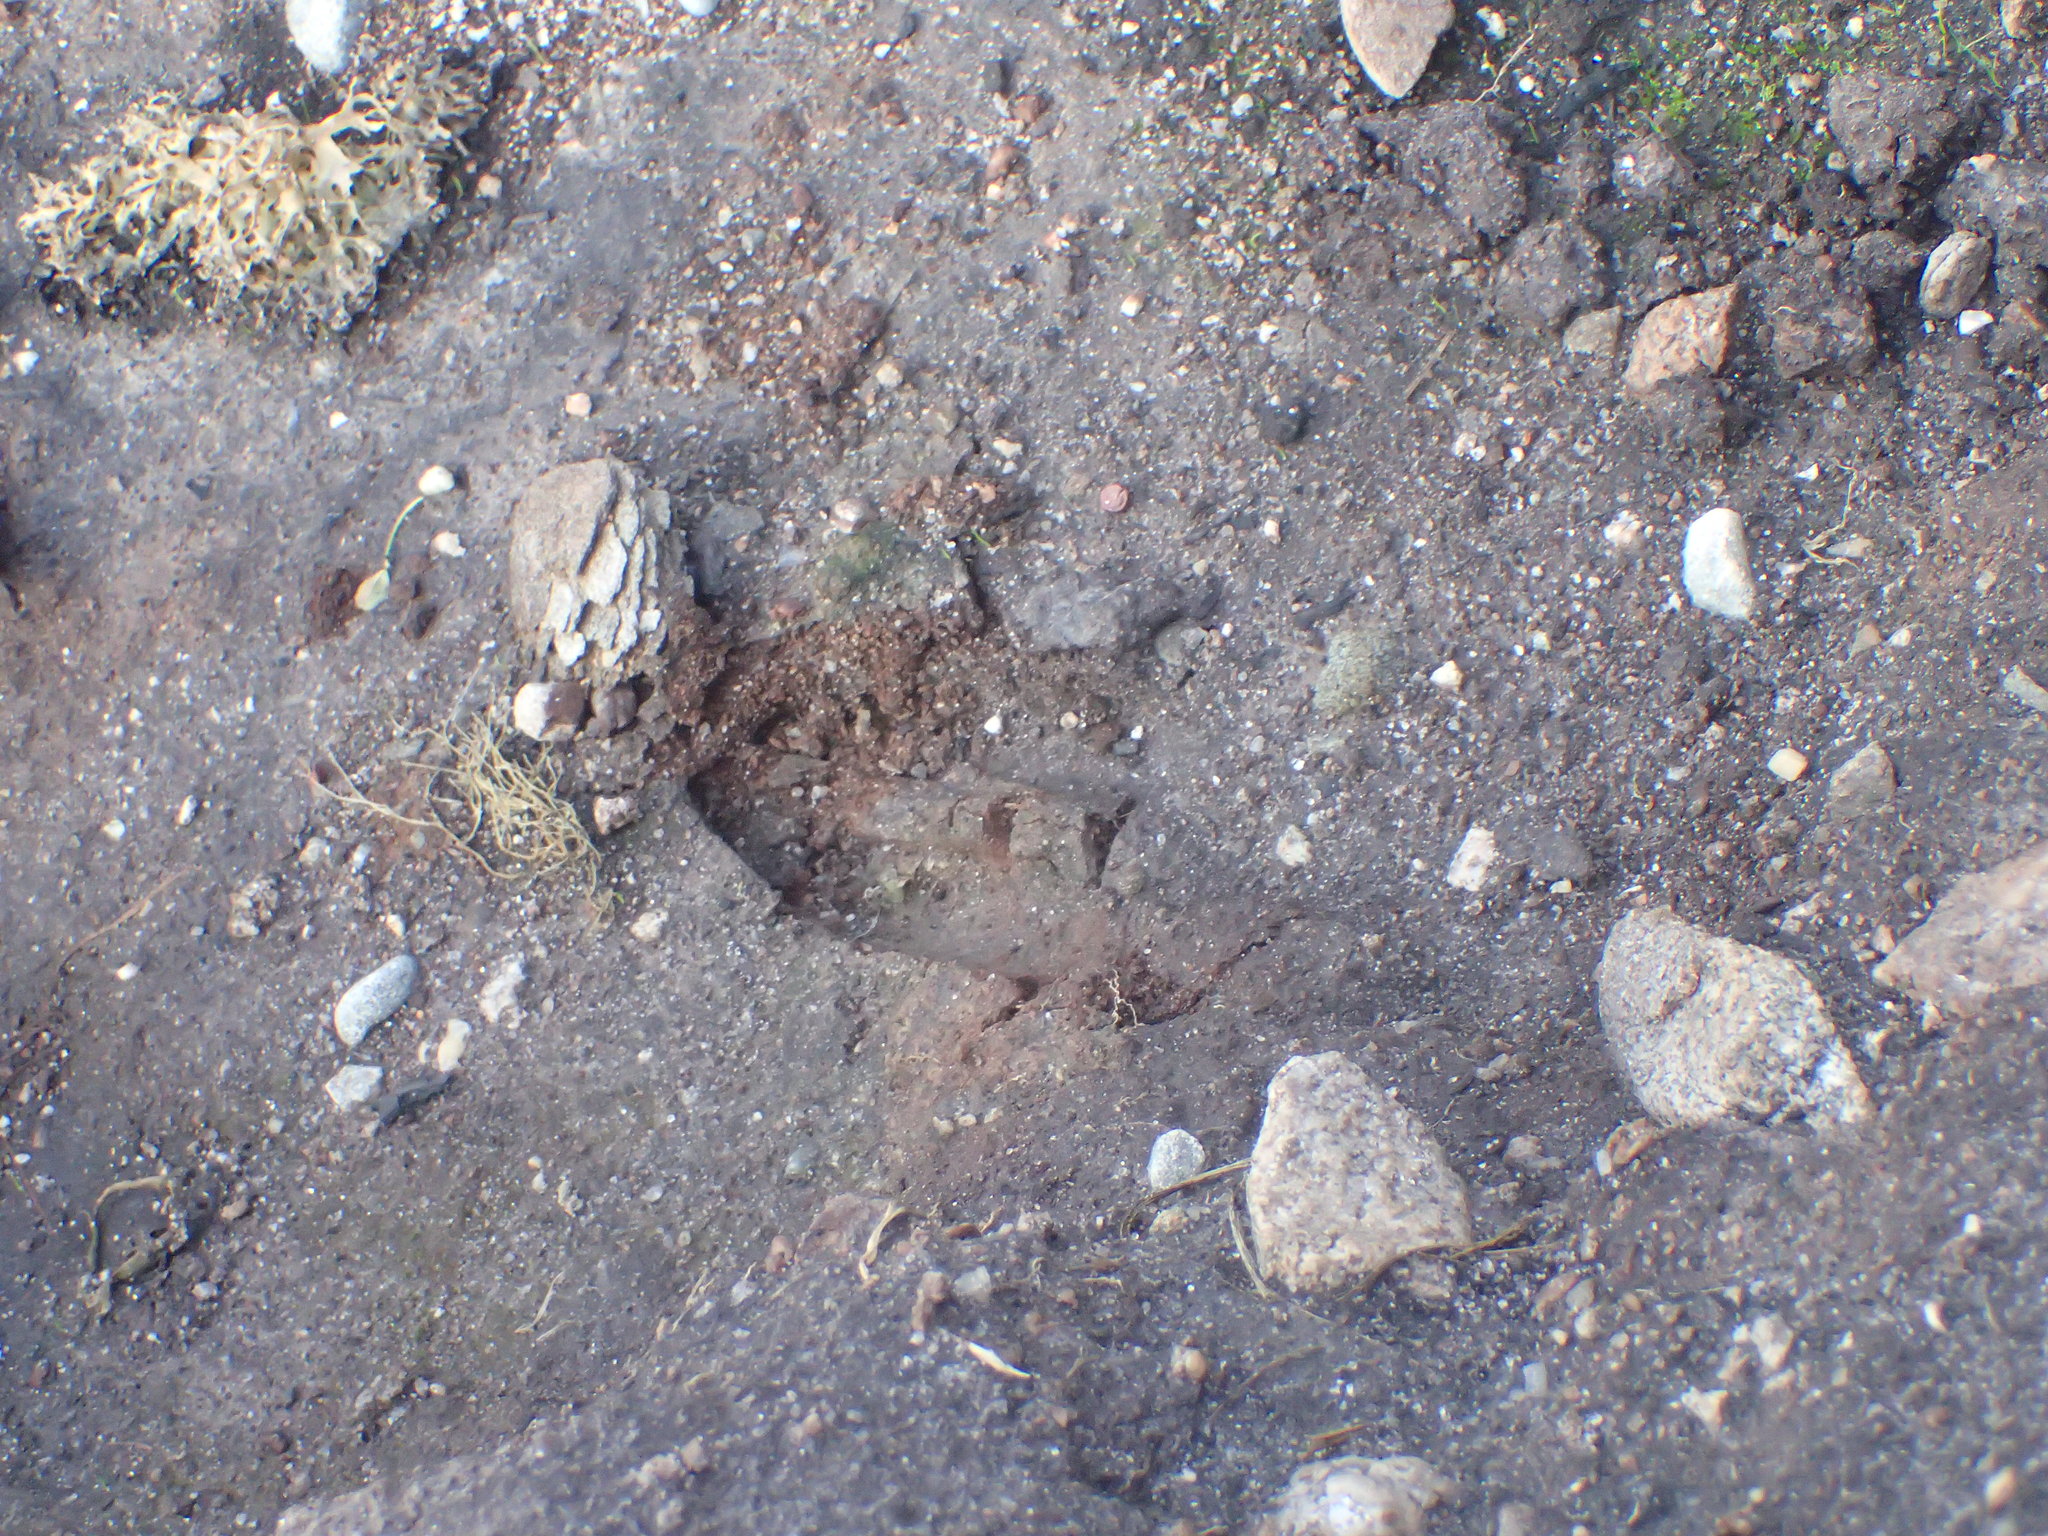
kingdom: Animalia
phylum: Chordata
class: Mammalia
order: Artiodactyla
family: Cervidae
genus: Odocoileus
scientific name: Odocoileus virginianus
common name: White-tailed deer
